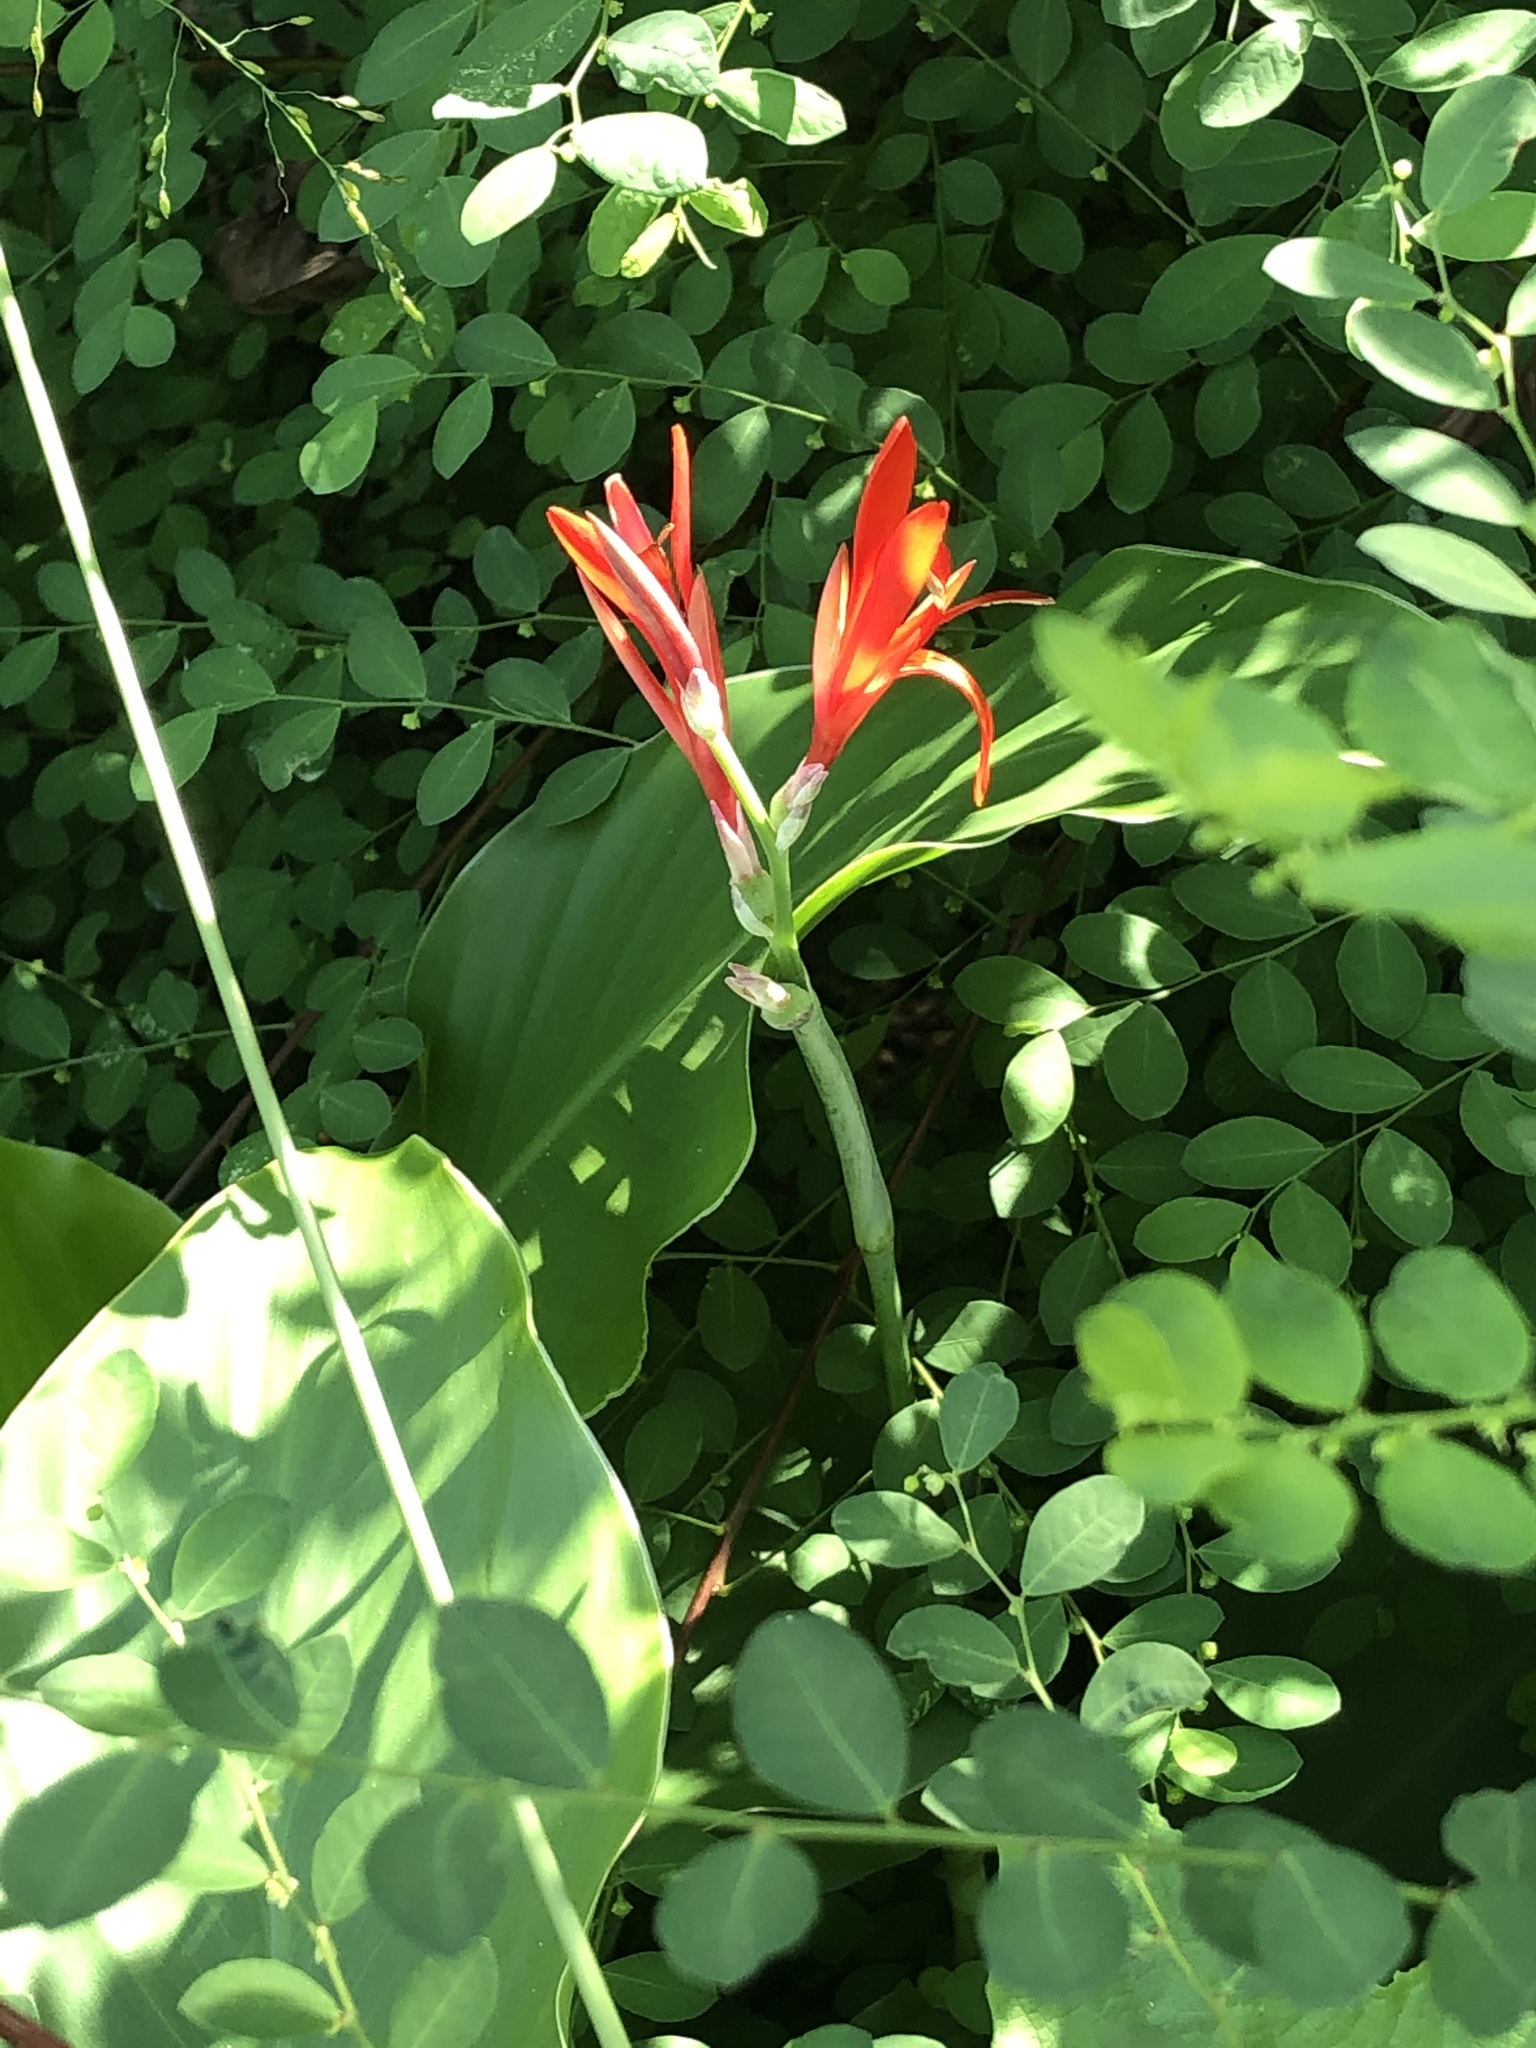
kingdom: Plantae
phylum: Tracheophyta
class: Liliopsida
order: Zingiberales
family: Cannaceae
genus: Canna
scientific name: Canna indica
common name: Indian shot
